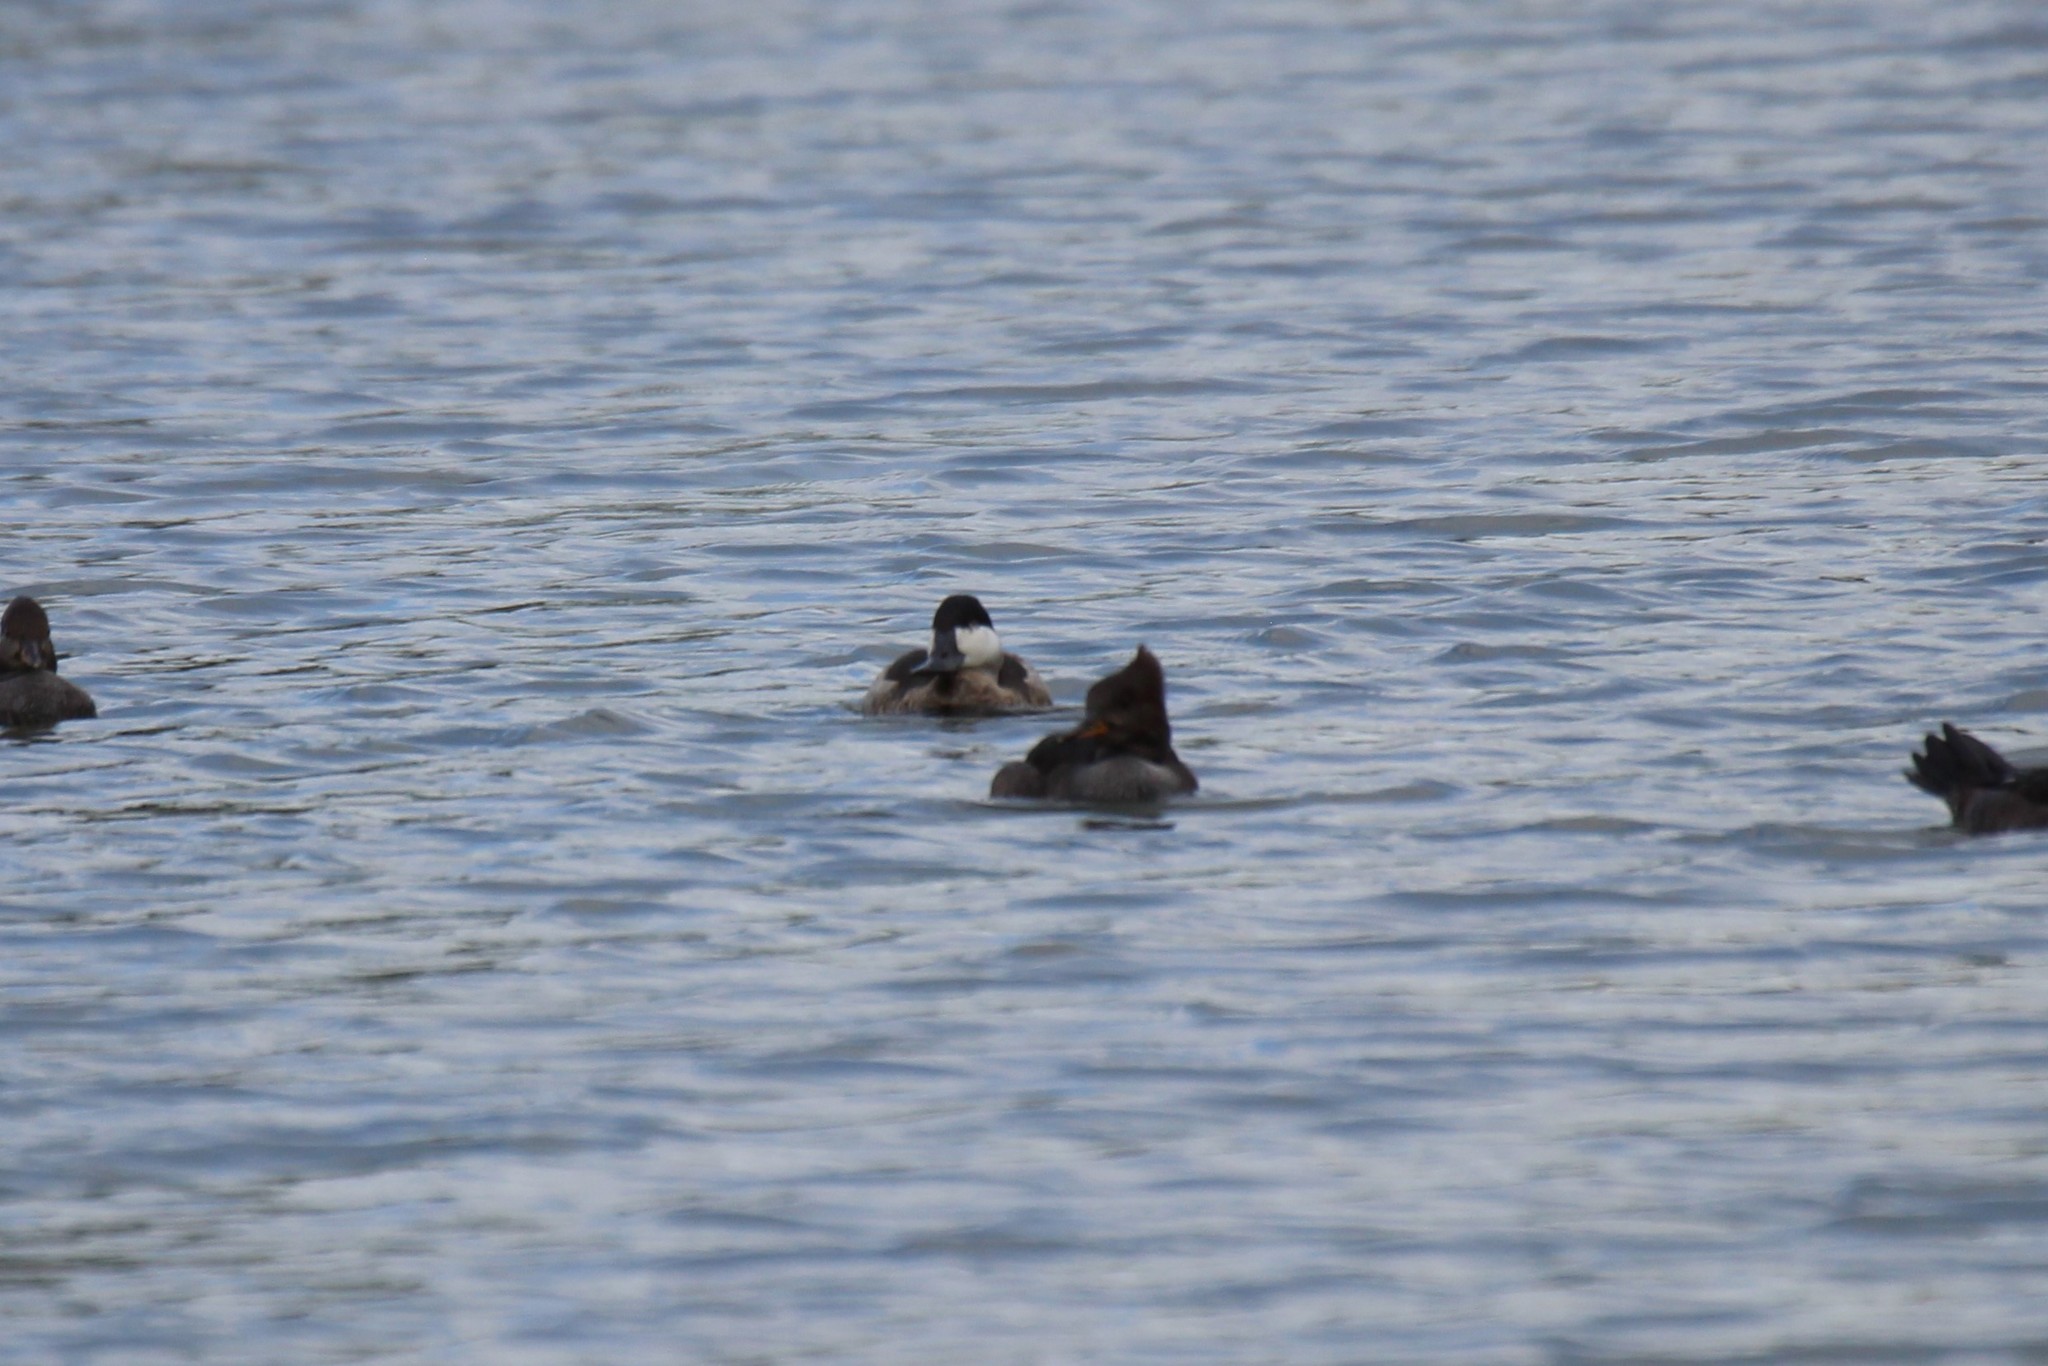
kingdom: Animalia
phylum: Chordata
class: Aves
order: Anseriformes
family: Anatidae
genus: Oxyura
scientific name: Oxyura jamaicensis
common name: Ruddy duck
